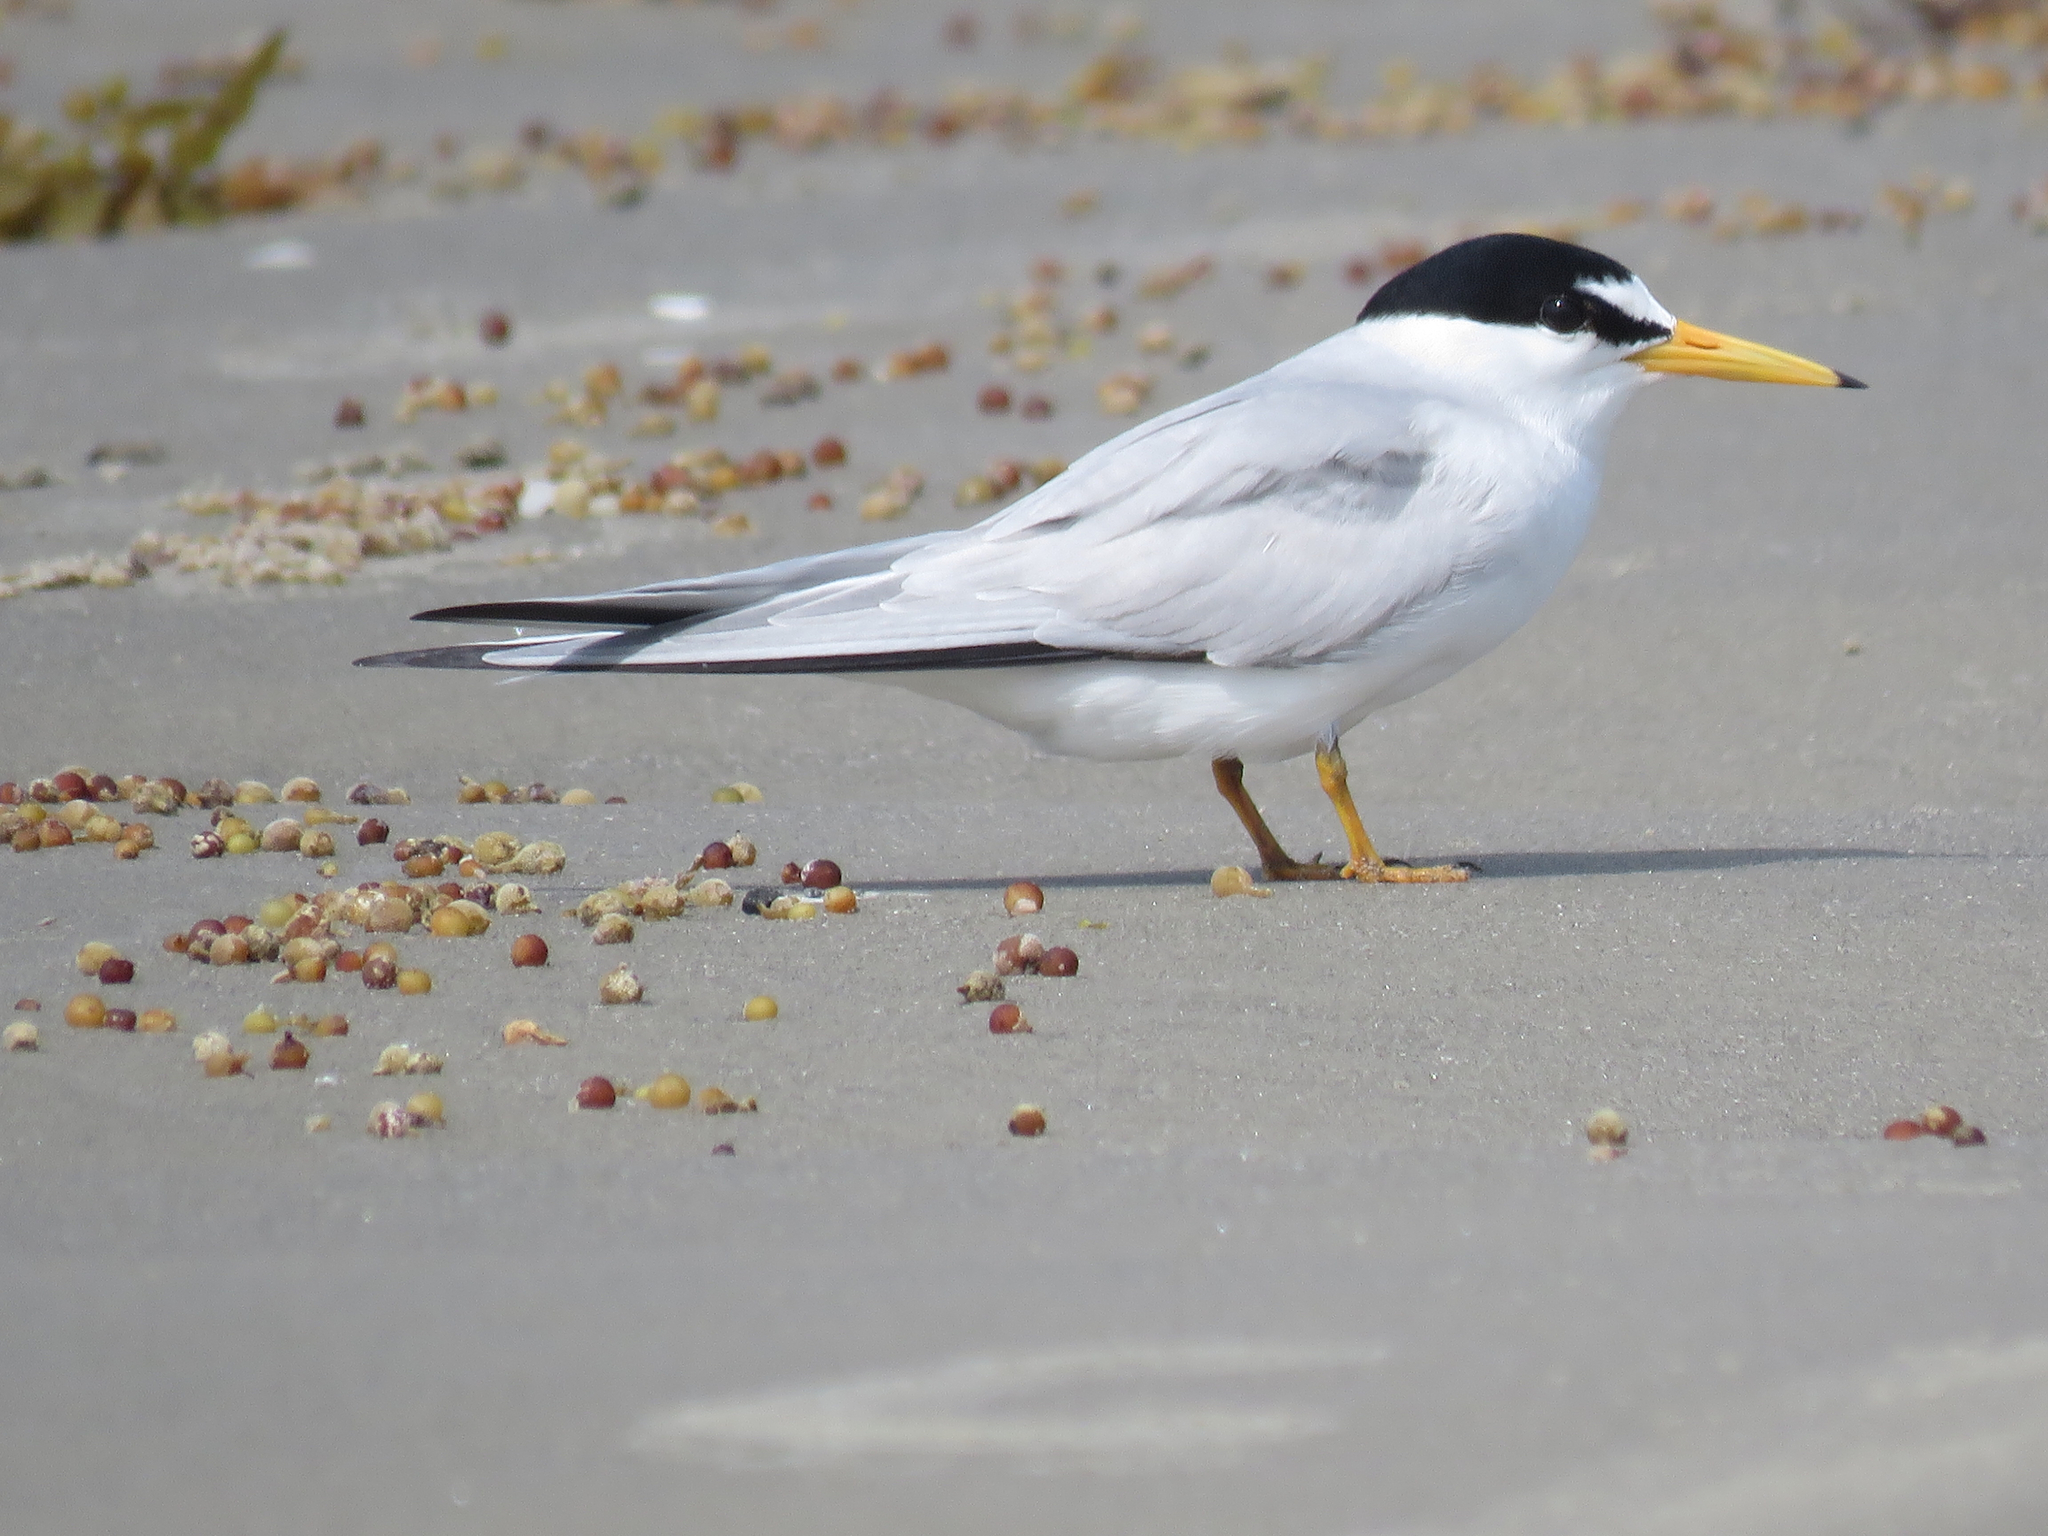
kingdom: Animalia
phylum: Chordata
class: Aves
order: Charadriiformes
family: Laridae
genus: Sternula
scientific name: Sternula antillarum
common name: Least tern
